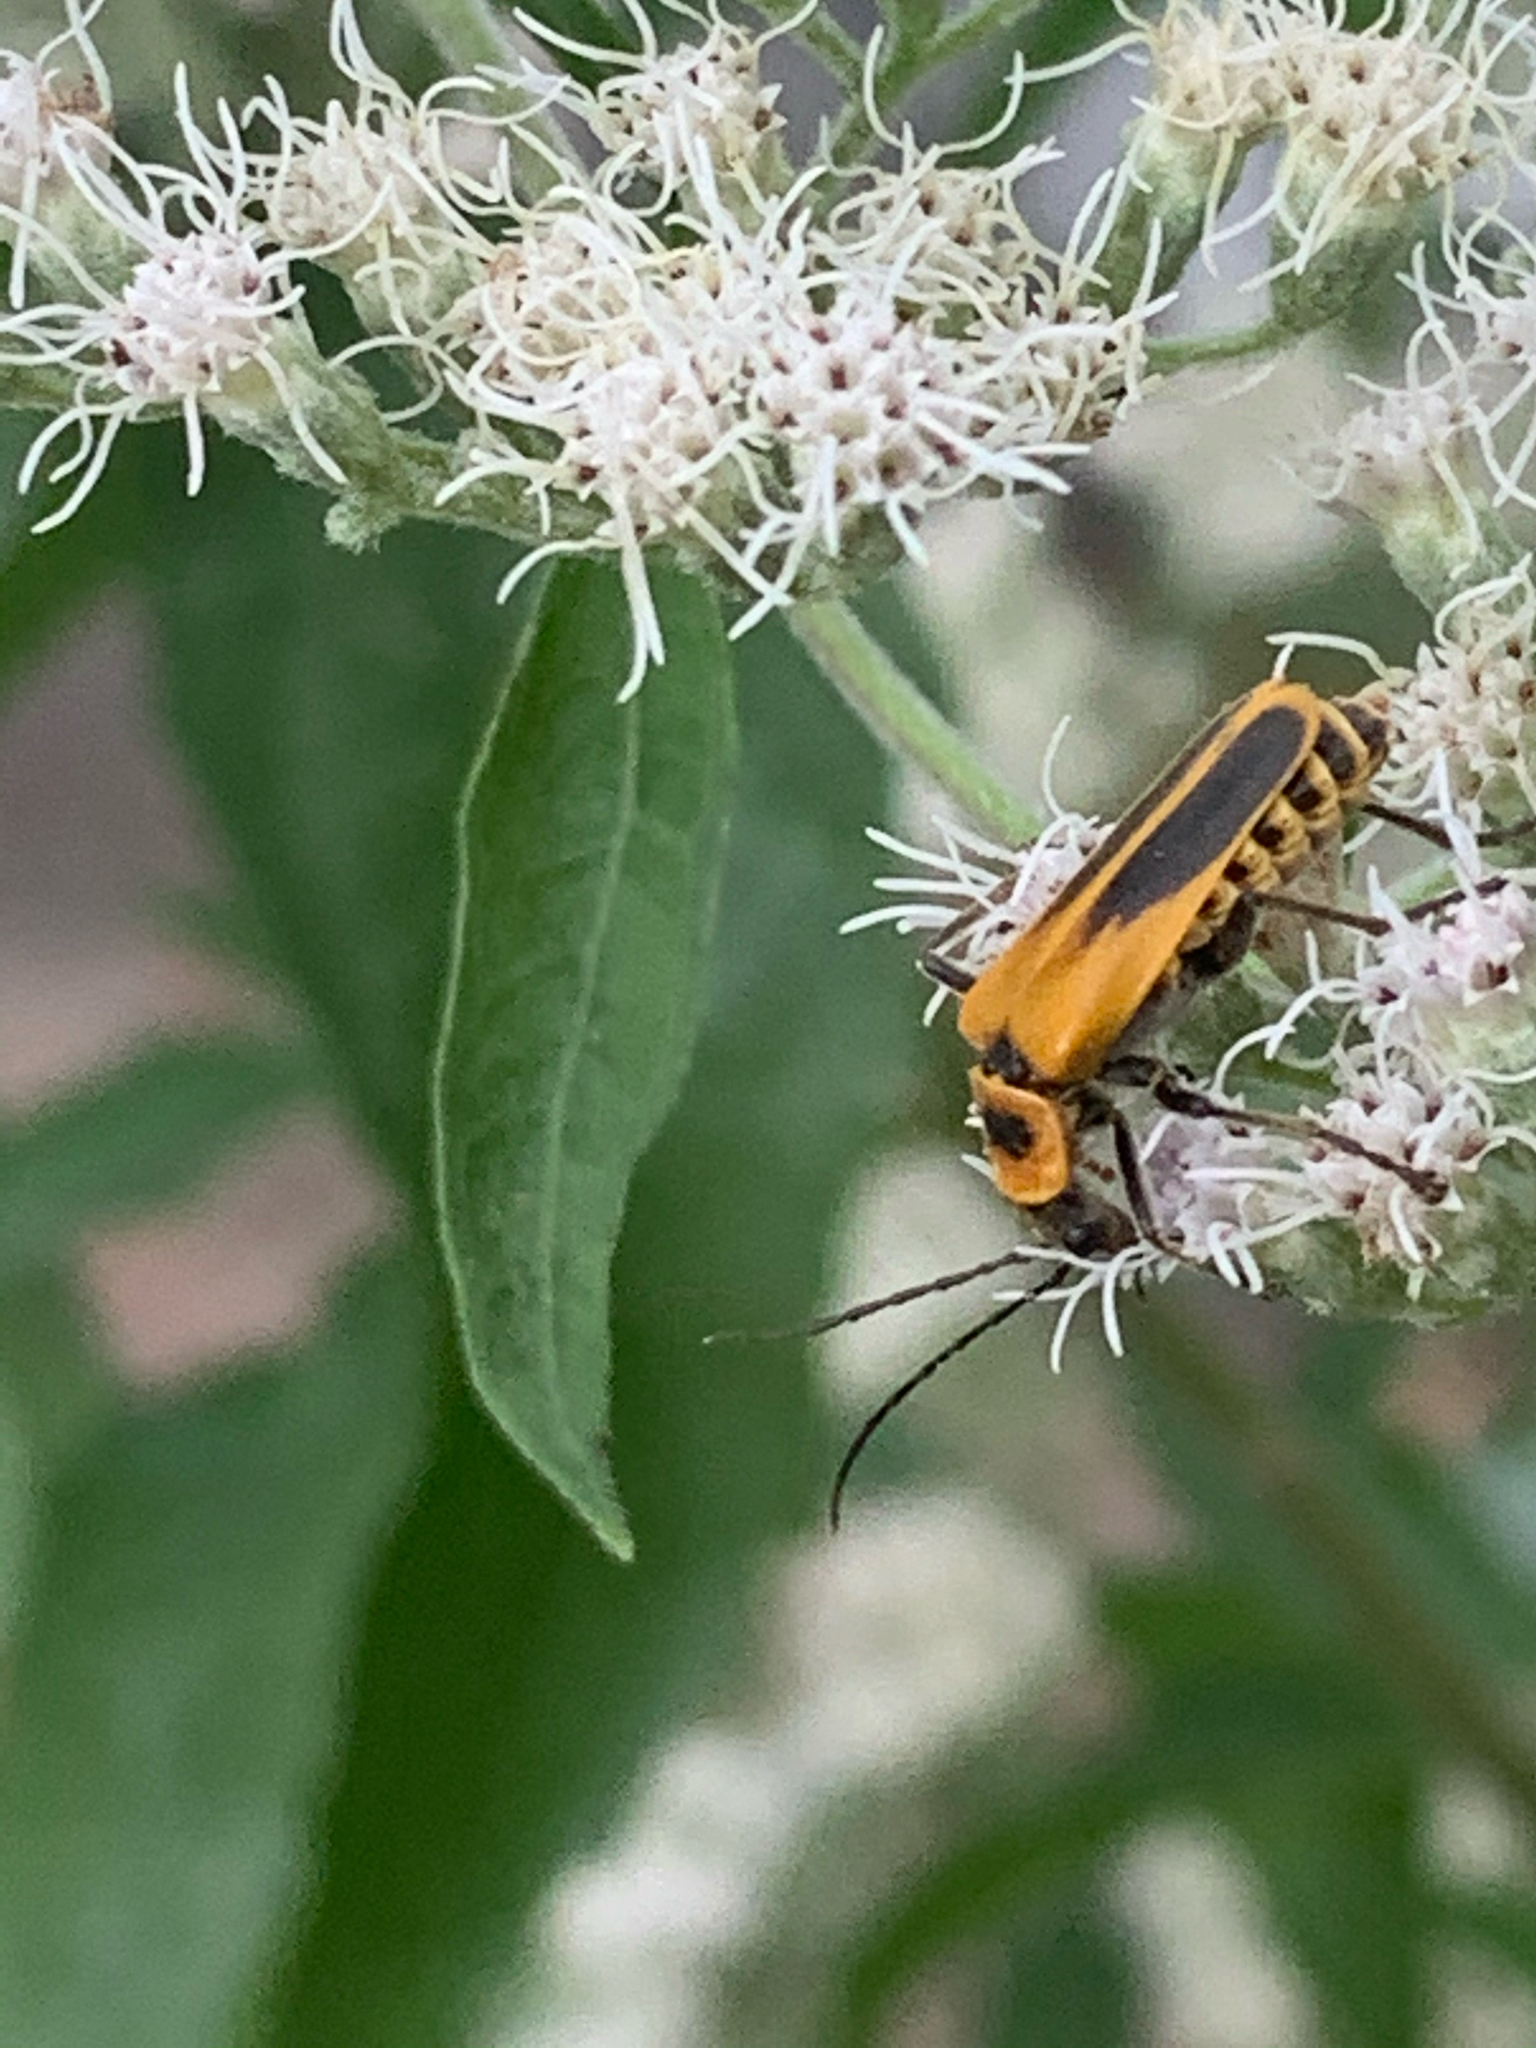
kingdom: Animalia
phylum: Arthropoda
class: Insecta
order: Coleoptera
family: Cantharidae
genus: Chauliognathus
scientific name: Chauliognathus pensylvanicus
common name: Goldenrod soldier beetle
